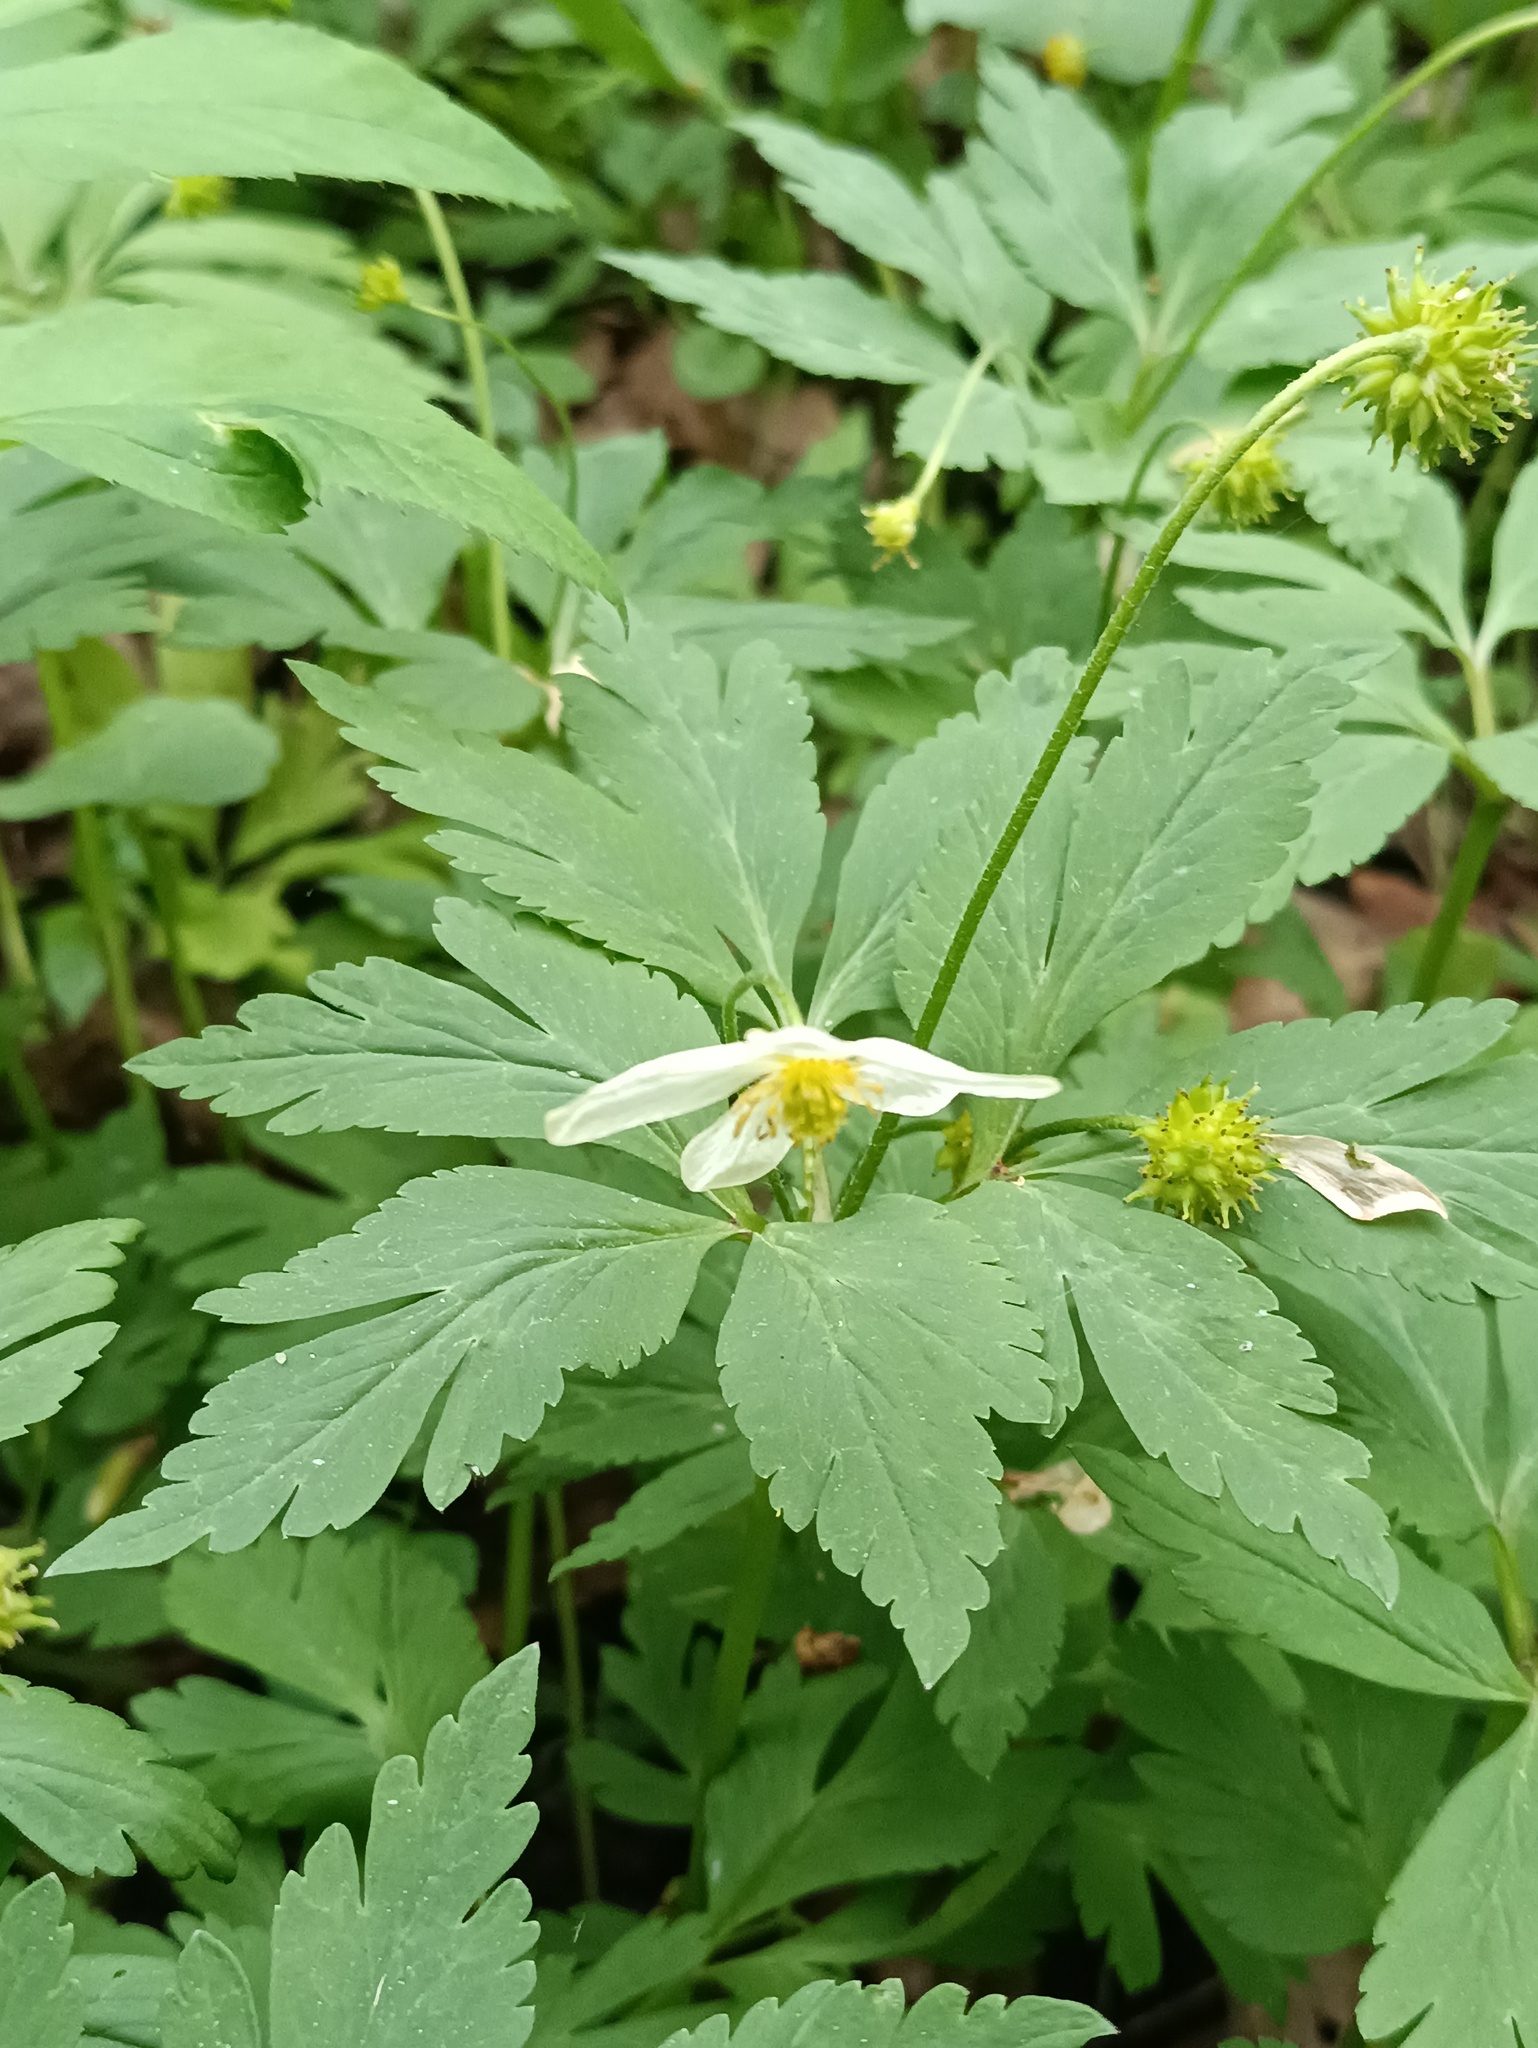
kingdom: Plantae
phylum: Tracheophyta
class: Magnoliopsida
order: Ranunculales
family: Ranunculaceae
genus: Anemone
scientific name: Anemone altaica
